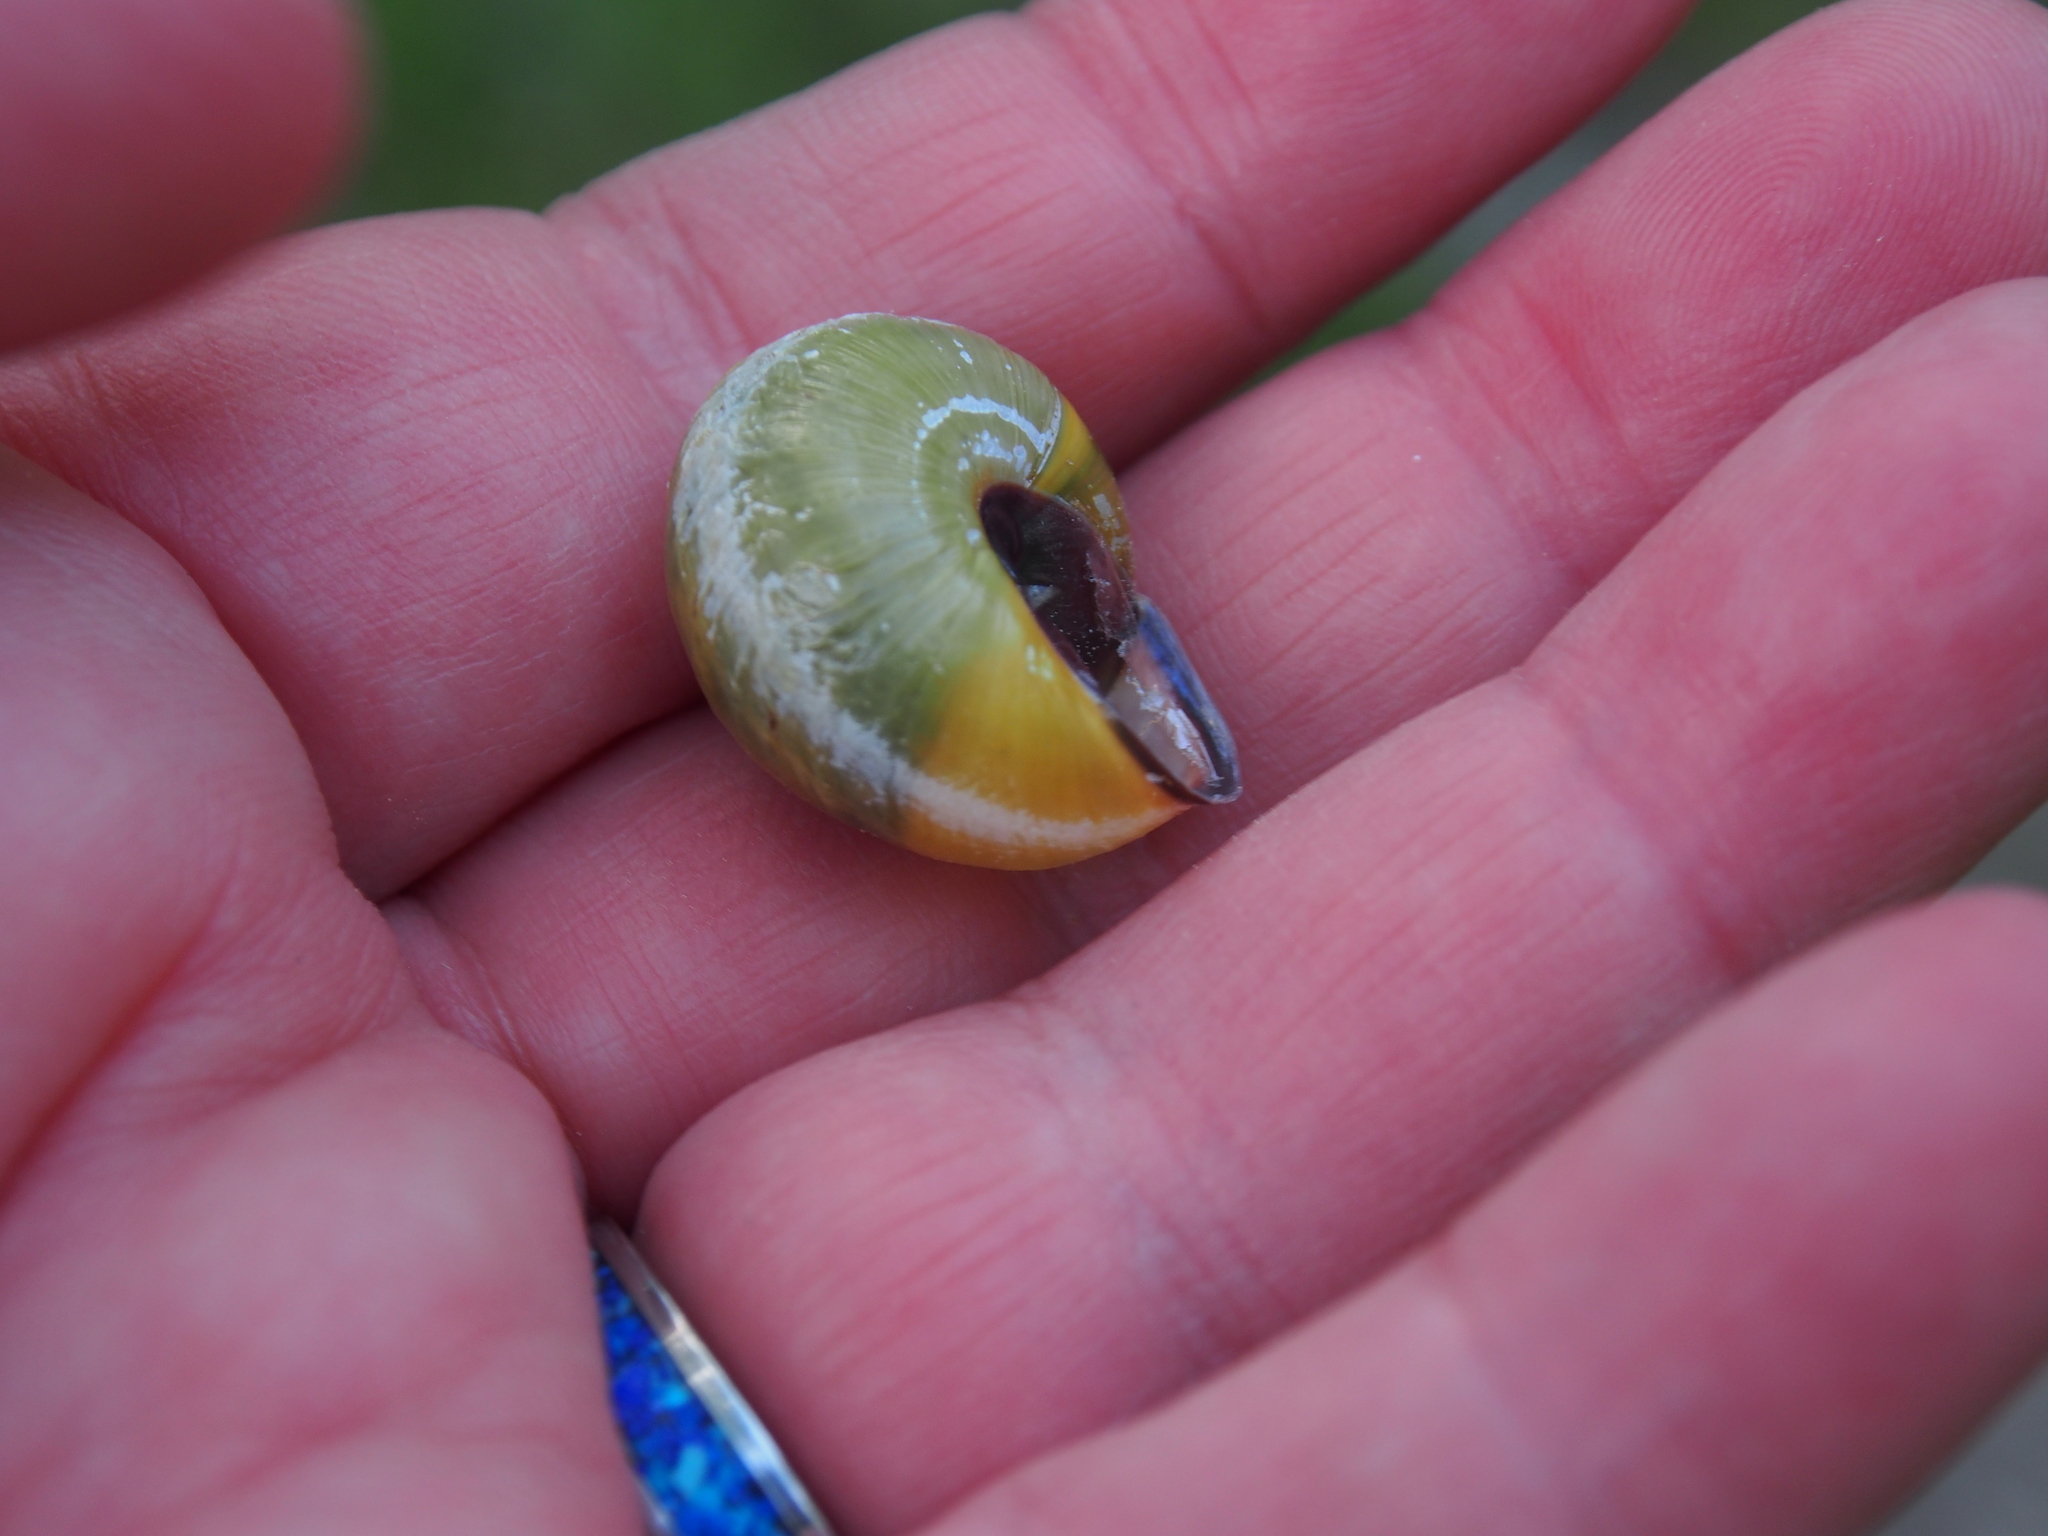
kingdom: Animalia
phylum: Mollusca
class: Gastropoda
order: Stylommatophora
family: Helicidae
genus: Cepaea
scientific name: Cepaea nemoralis
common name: Grovesnail
